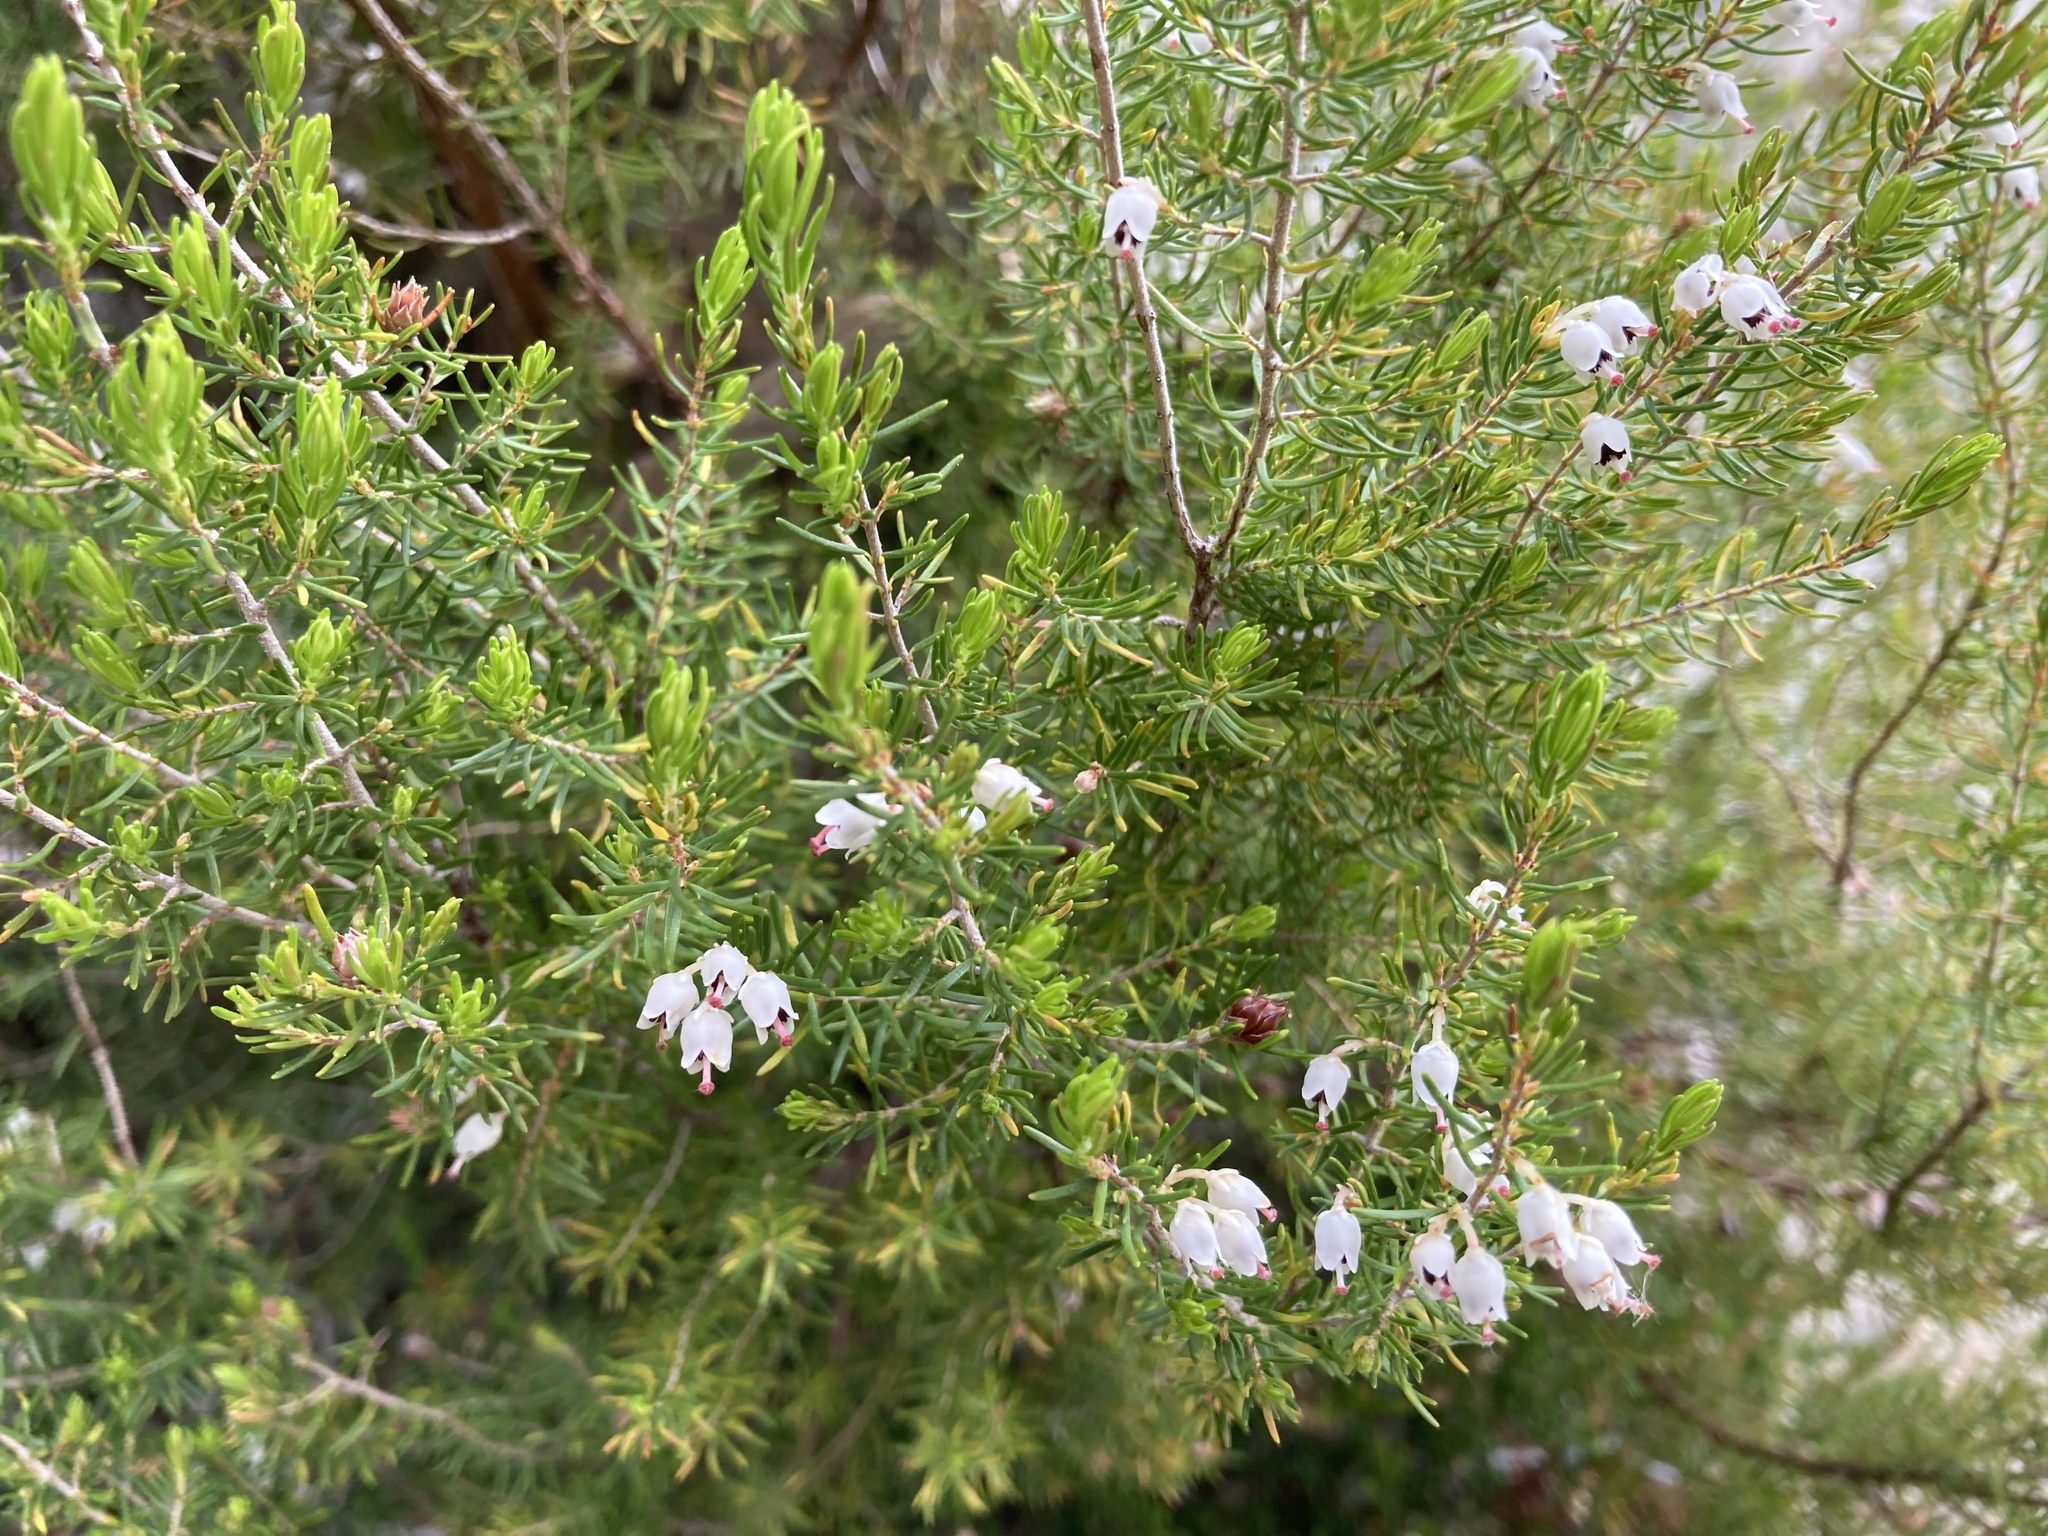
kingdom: Plantae
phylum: Tracheophyta
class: Magnoliopsida
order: Ericales
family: Ericaceae
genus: Erica
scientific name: Erica arborea
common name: Tree heath
